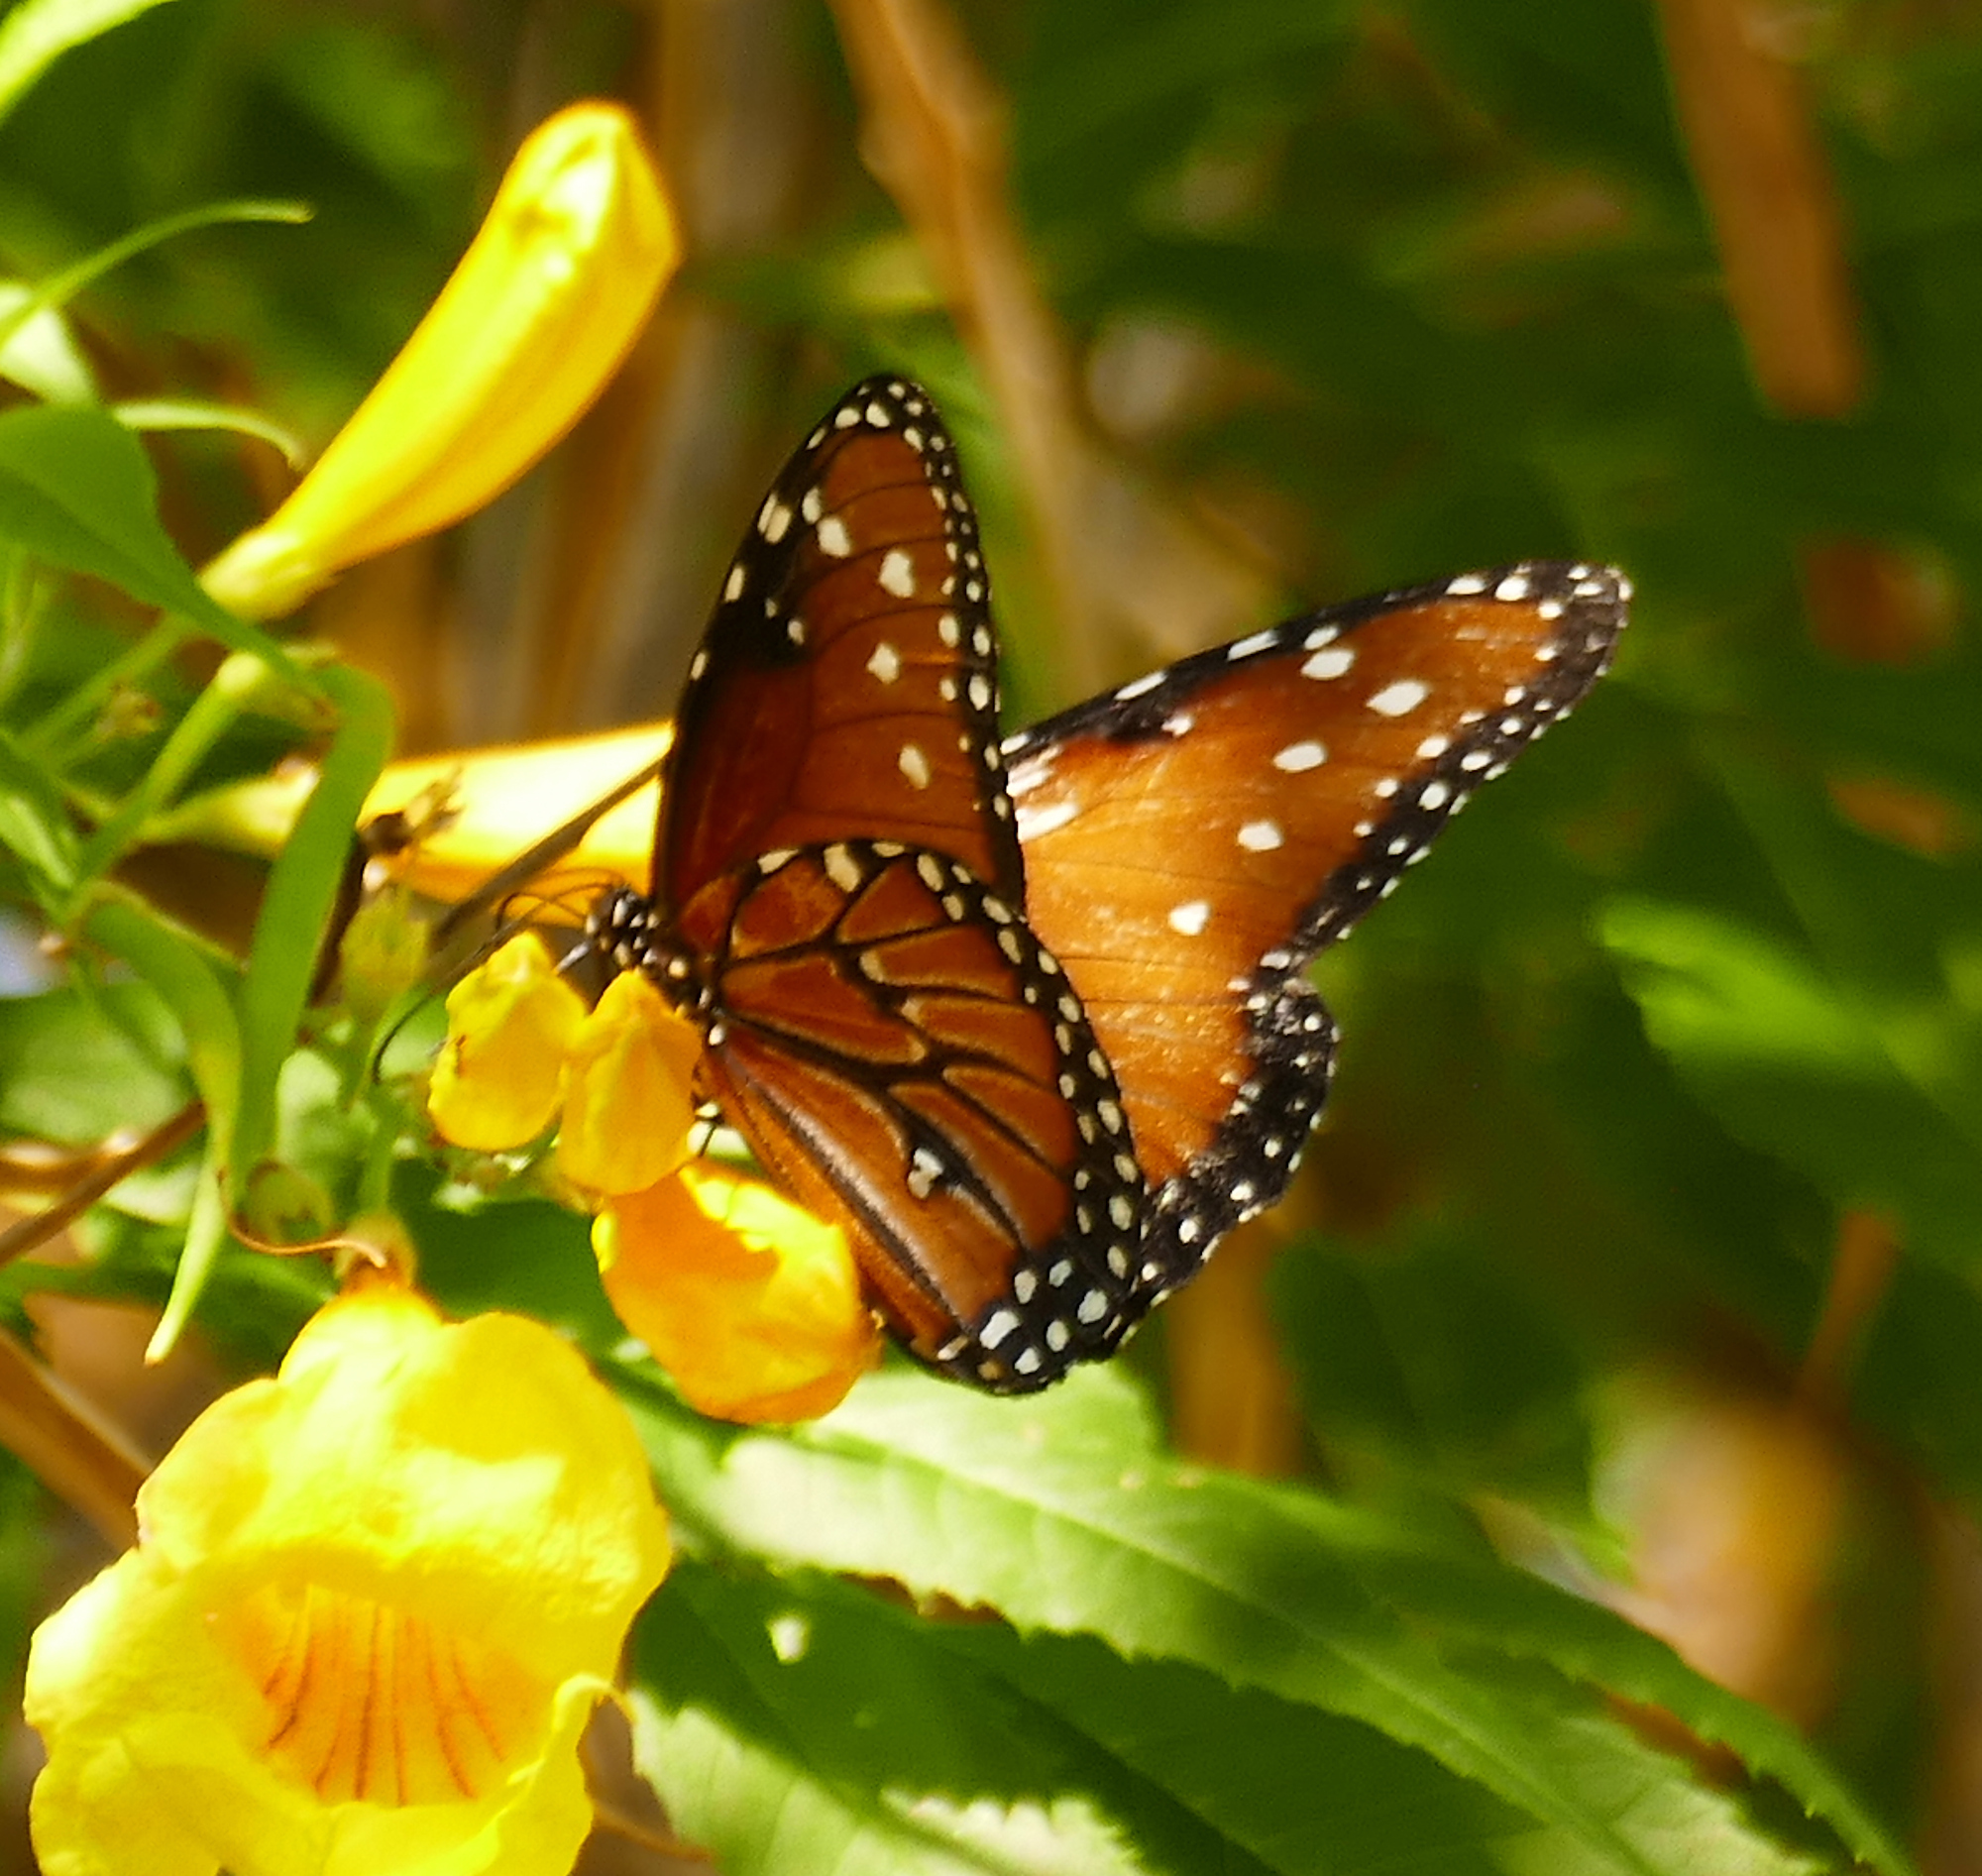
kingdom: Animalia
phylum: Arthropoda
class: Insecta
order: Lepidoptera
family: Nymphalidae
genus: Danaus
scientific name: Danaus gilippus
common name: Queen
